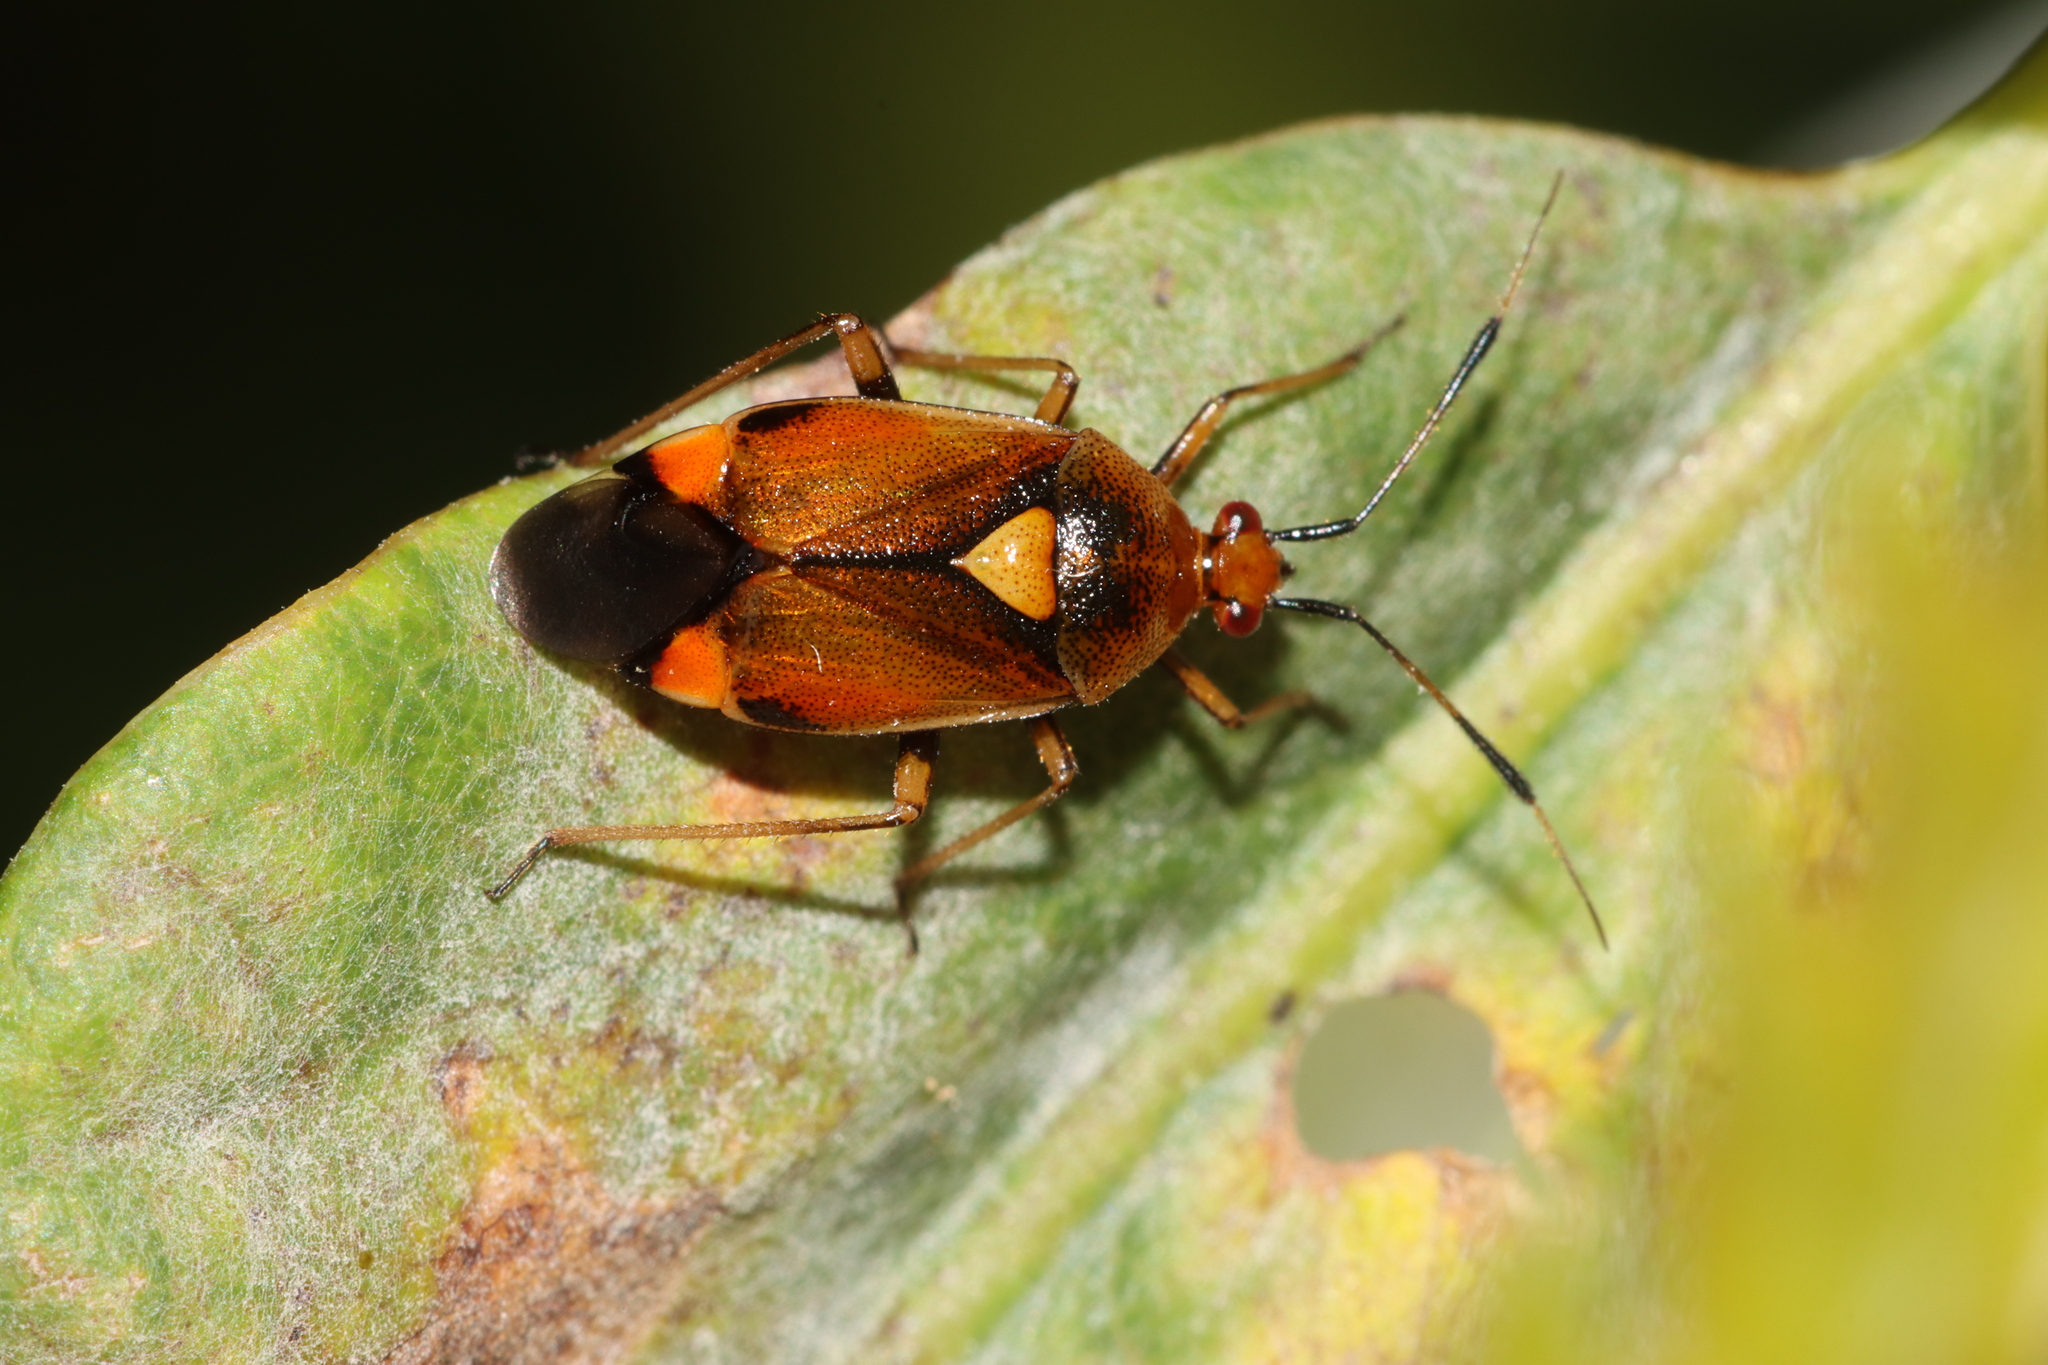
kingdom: Animalia
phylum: Arthropoda
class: Insecta
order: Hemiptera
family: Miridae
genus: Deraeocoris
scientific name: Deraeocoris ruber
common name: Plant bug
